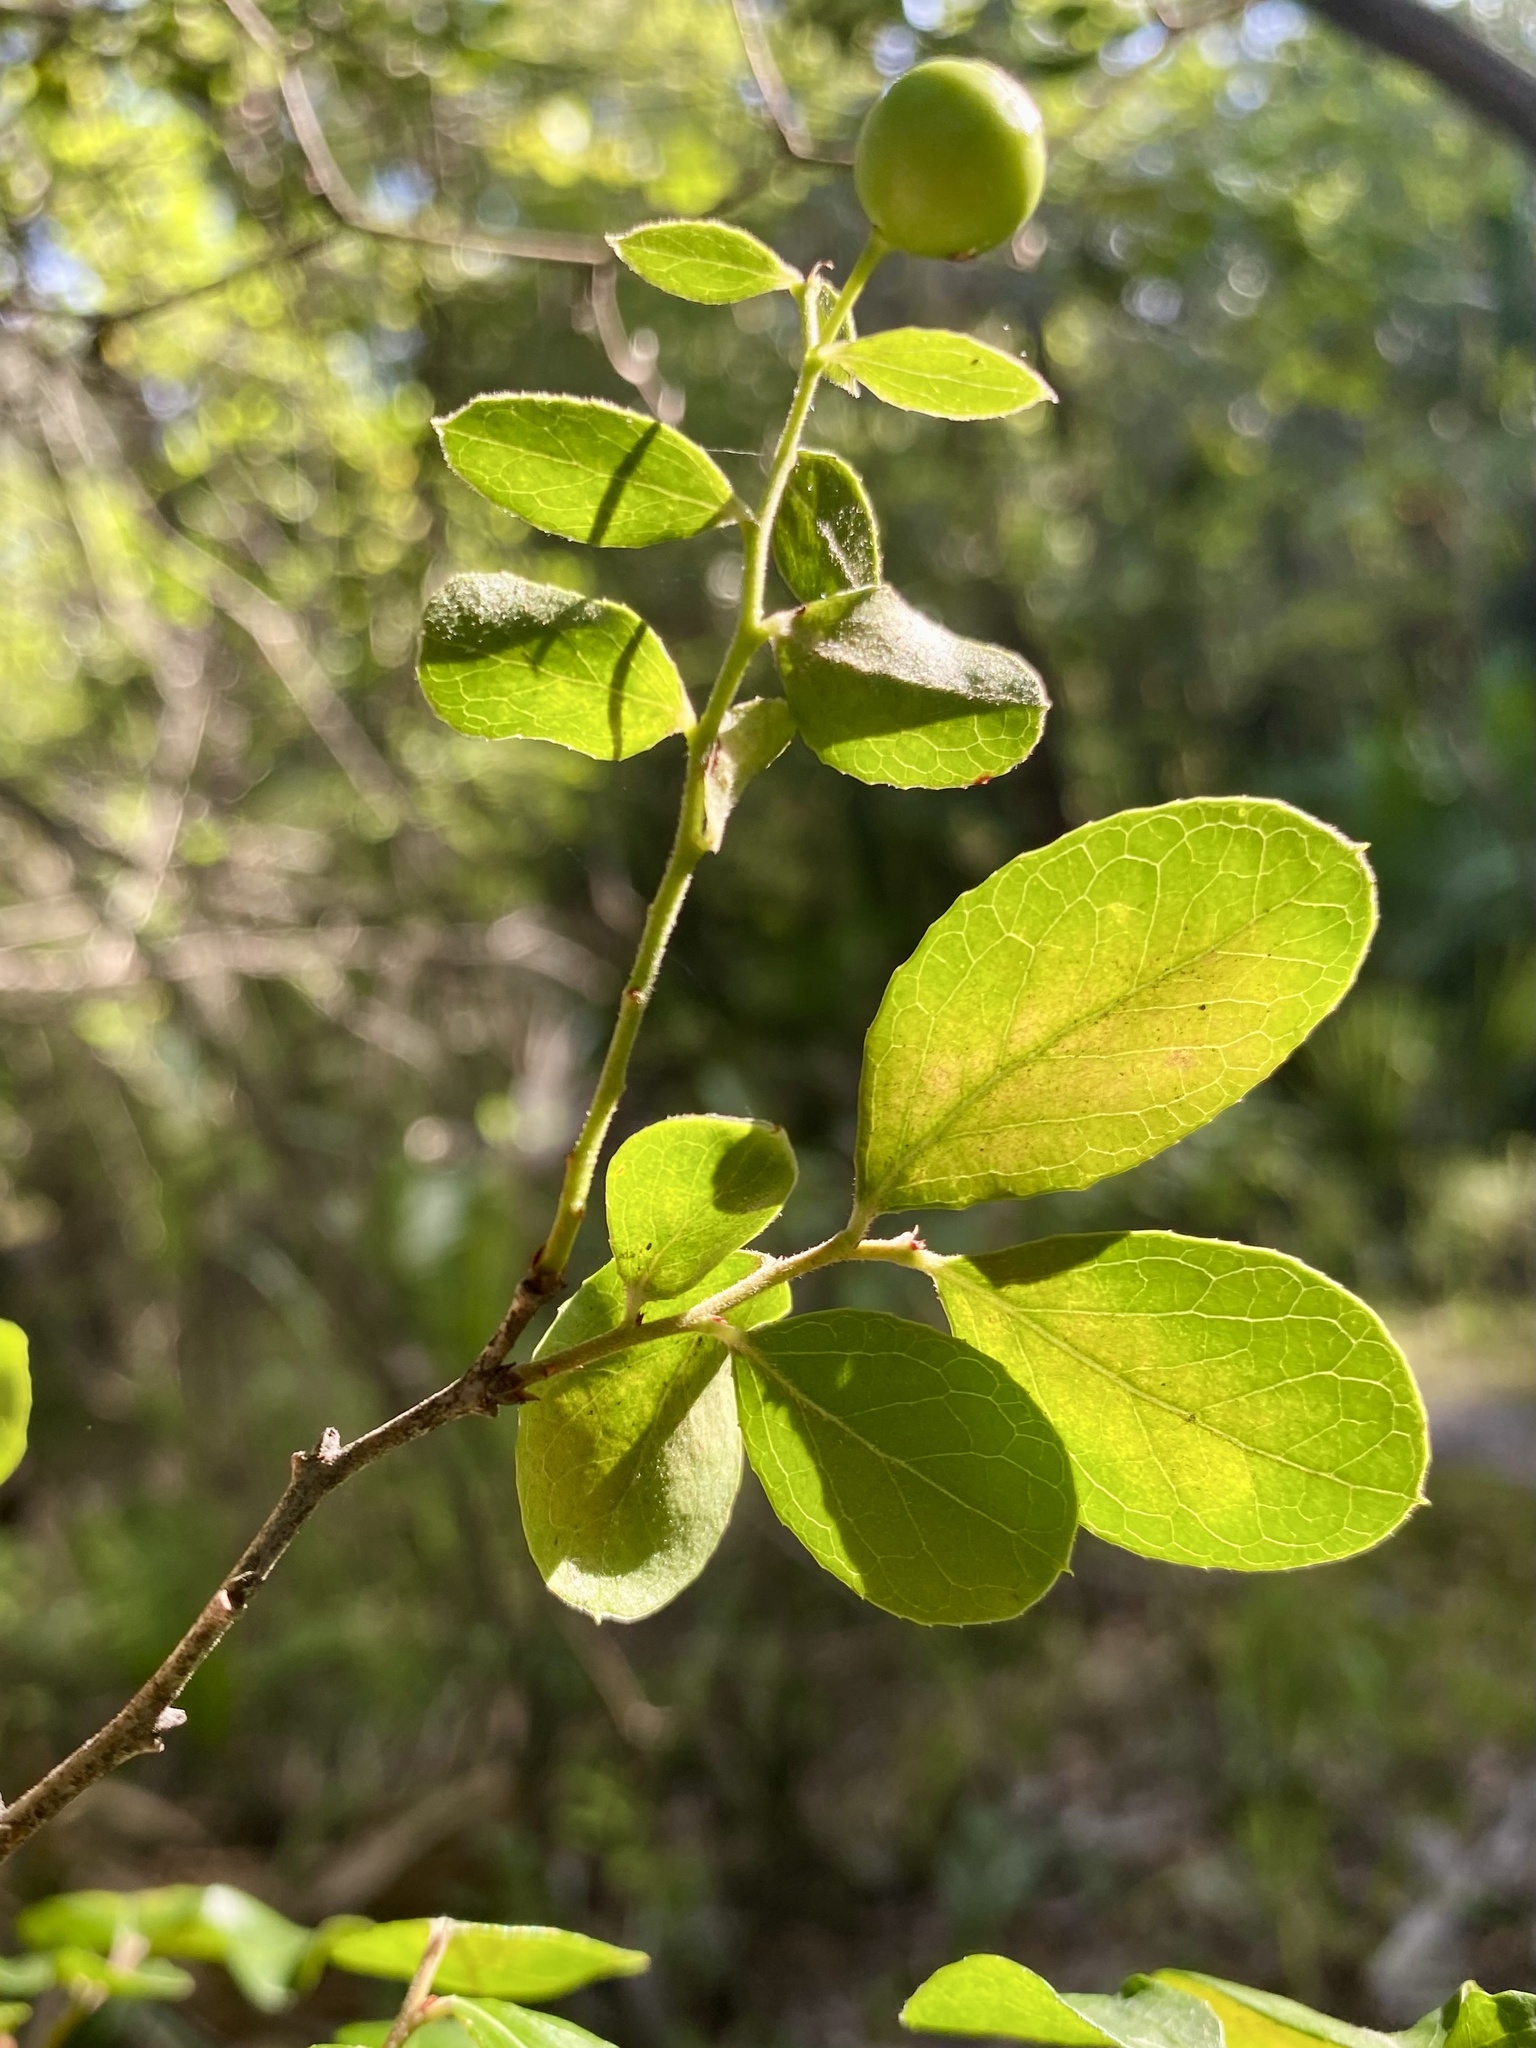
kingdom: Plantae
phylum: Tracheophyta
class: Magnoliopsida
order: Ericales
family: Ericaceae
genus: Vaccinium
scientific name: Vaccinium arboreum
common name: Farkleberry
